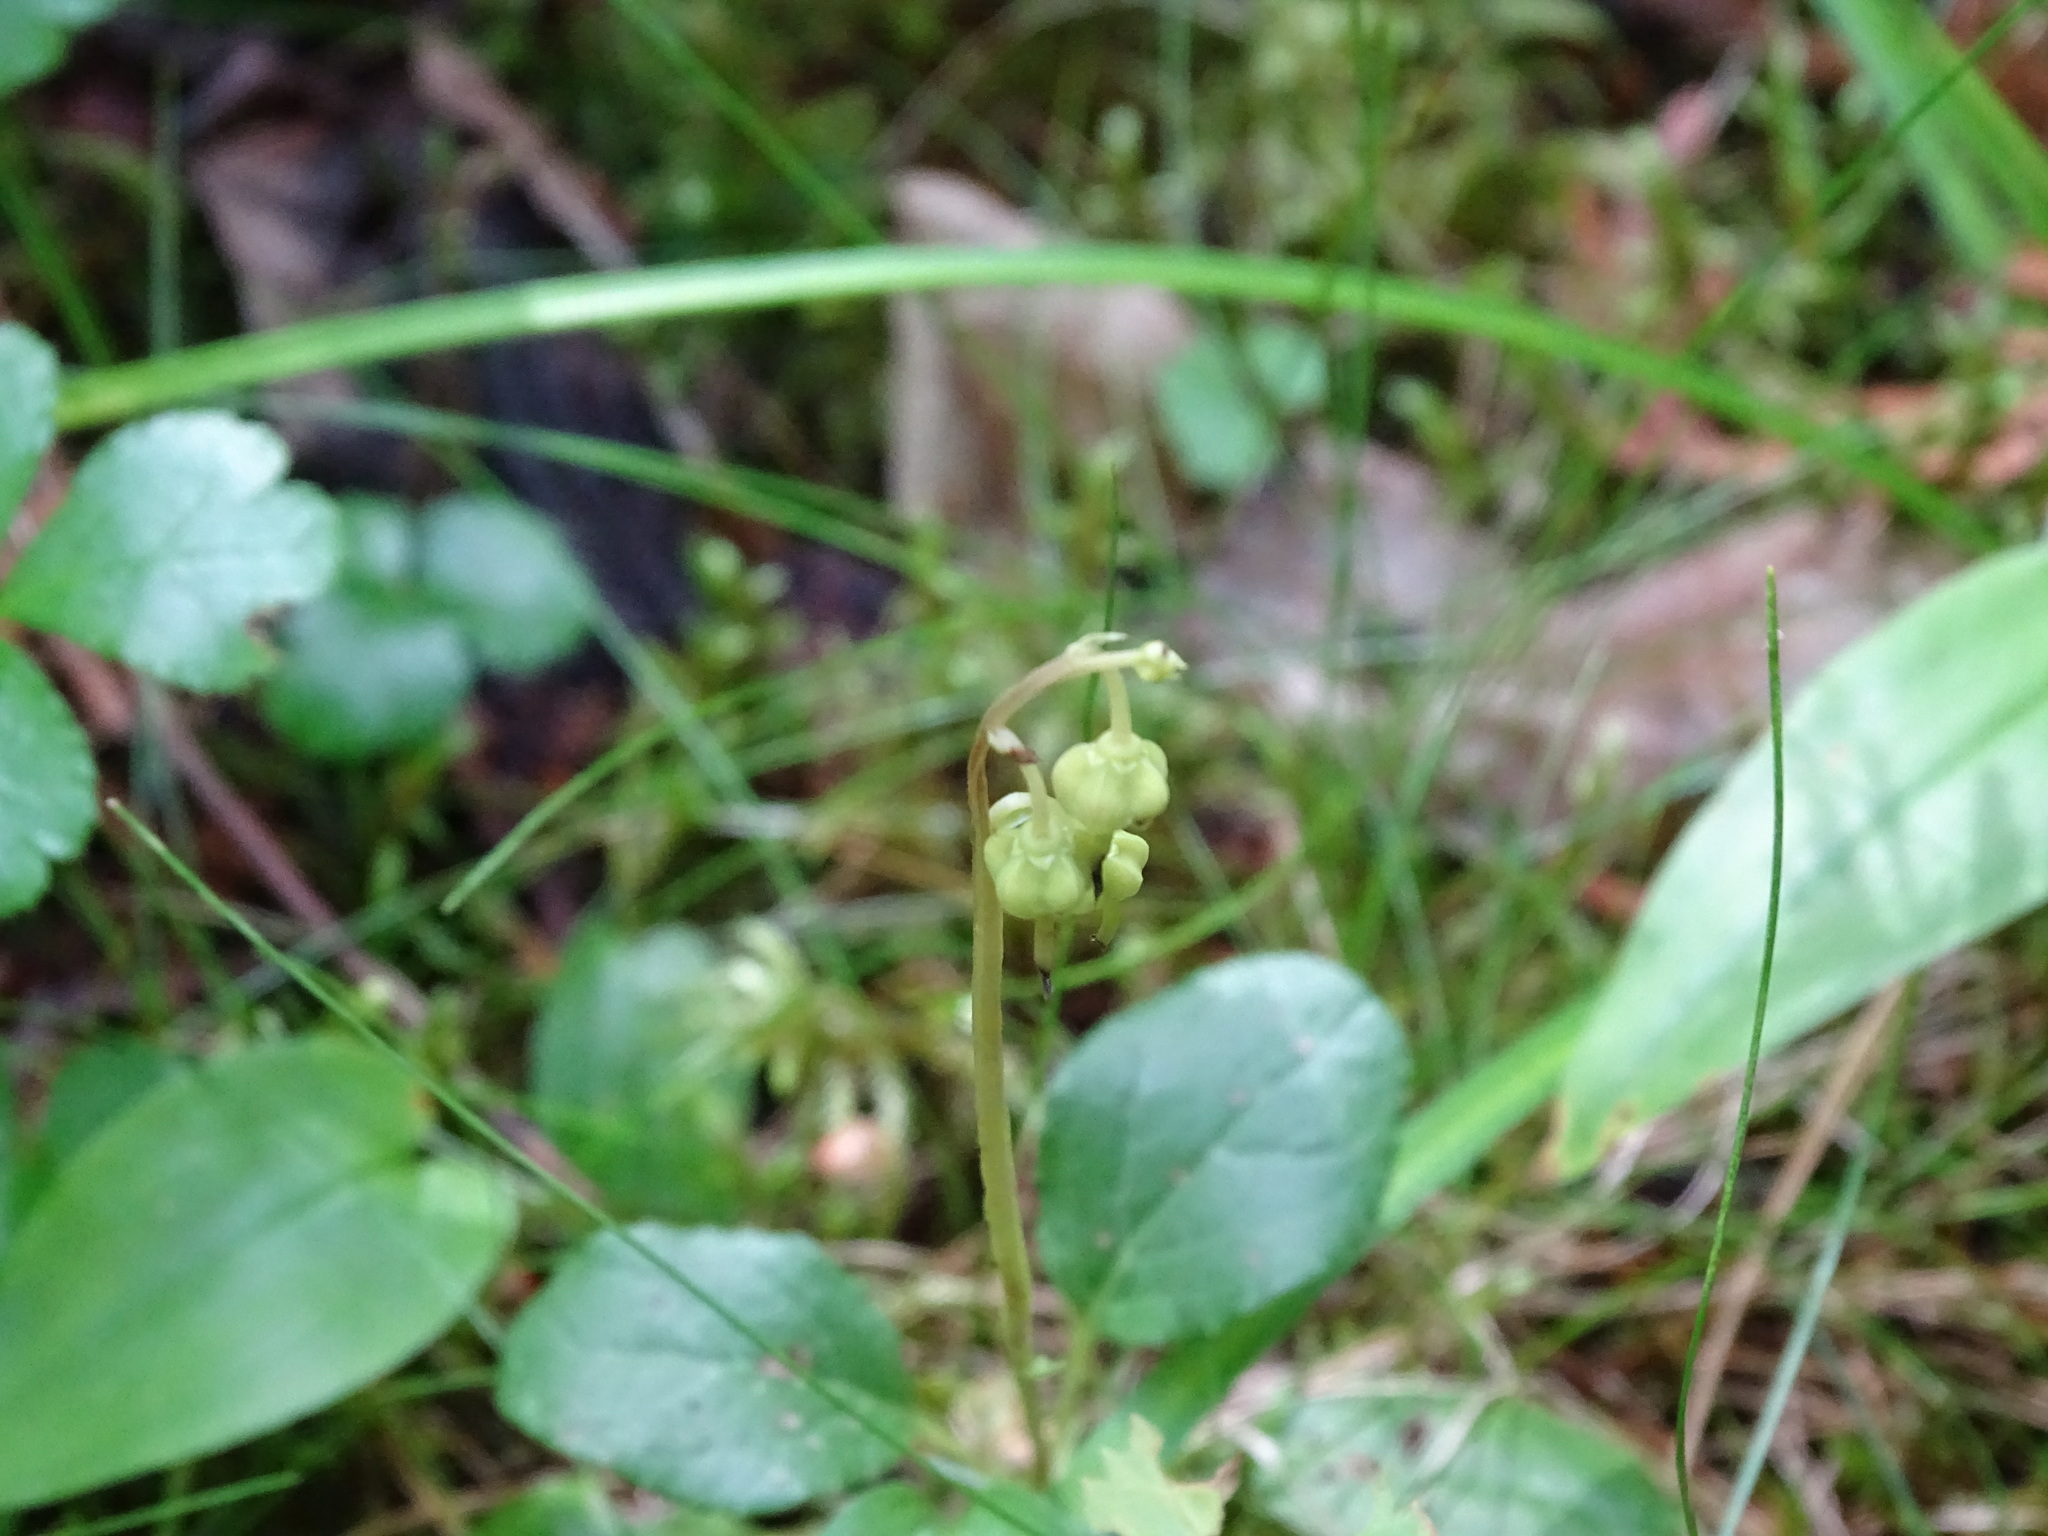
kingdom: Plantae
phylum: Tracheophyta
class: Magnoliopsida
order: Ericales
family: Ericaceae
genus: Orthilia
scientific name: Orthilia secunda
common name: One-sided orthilia
